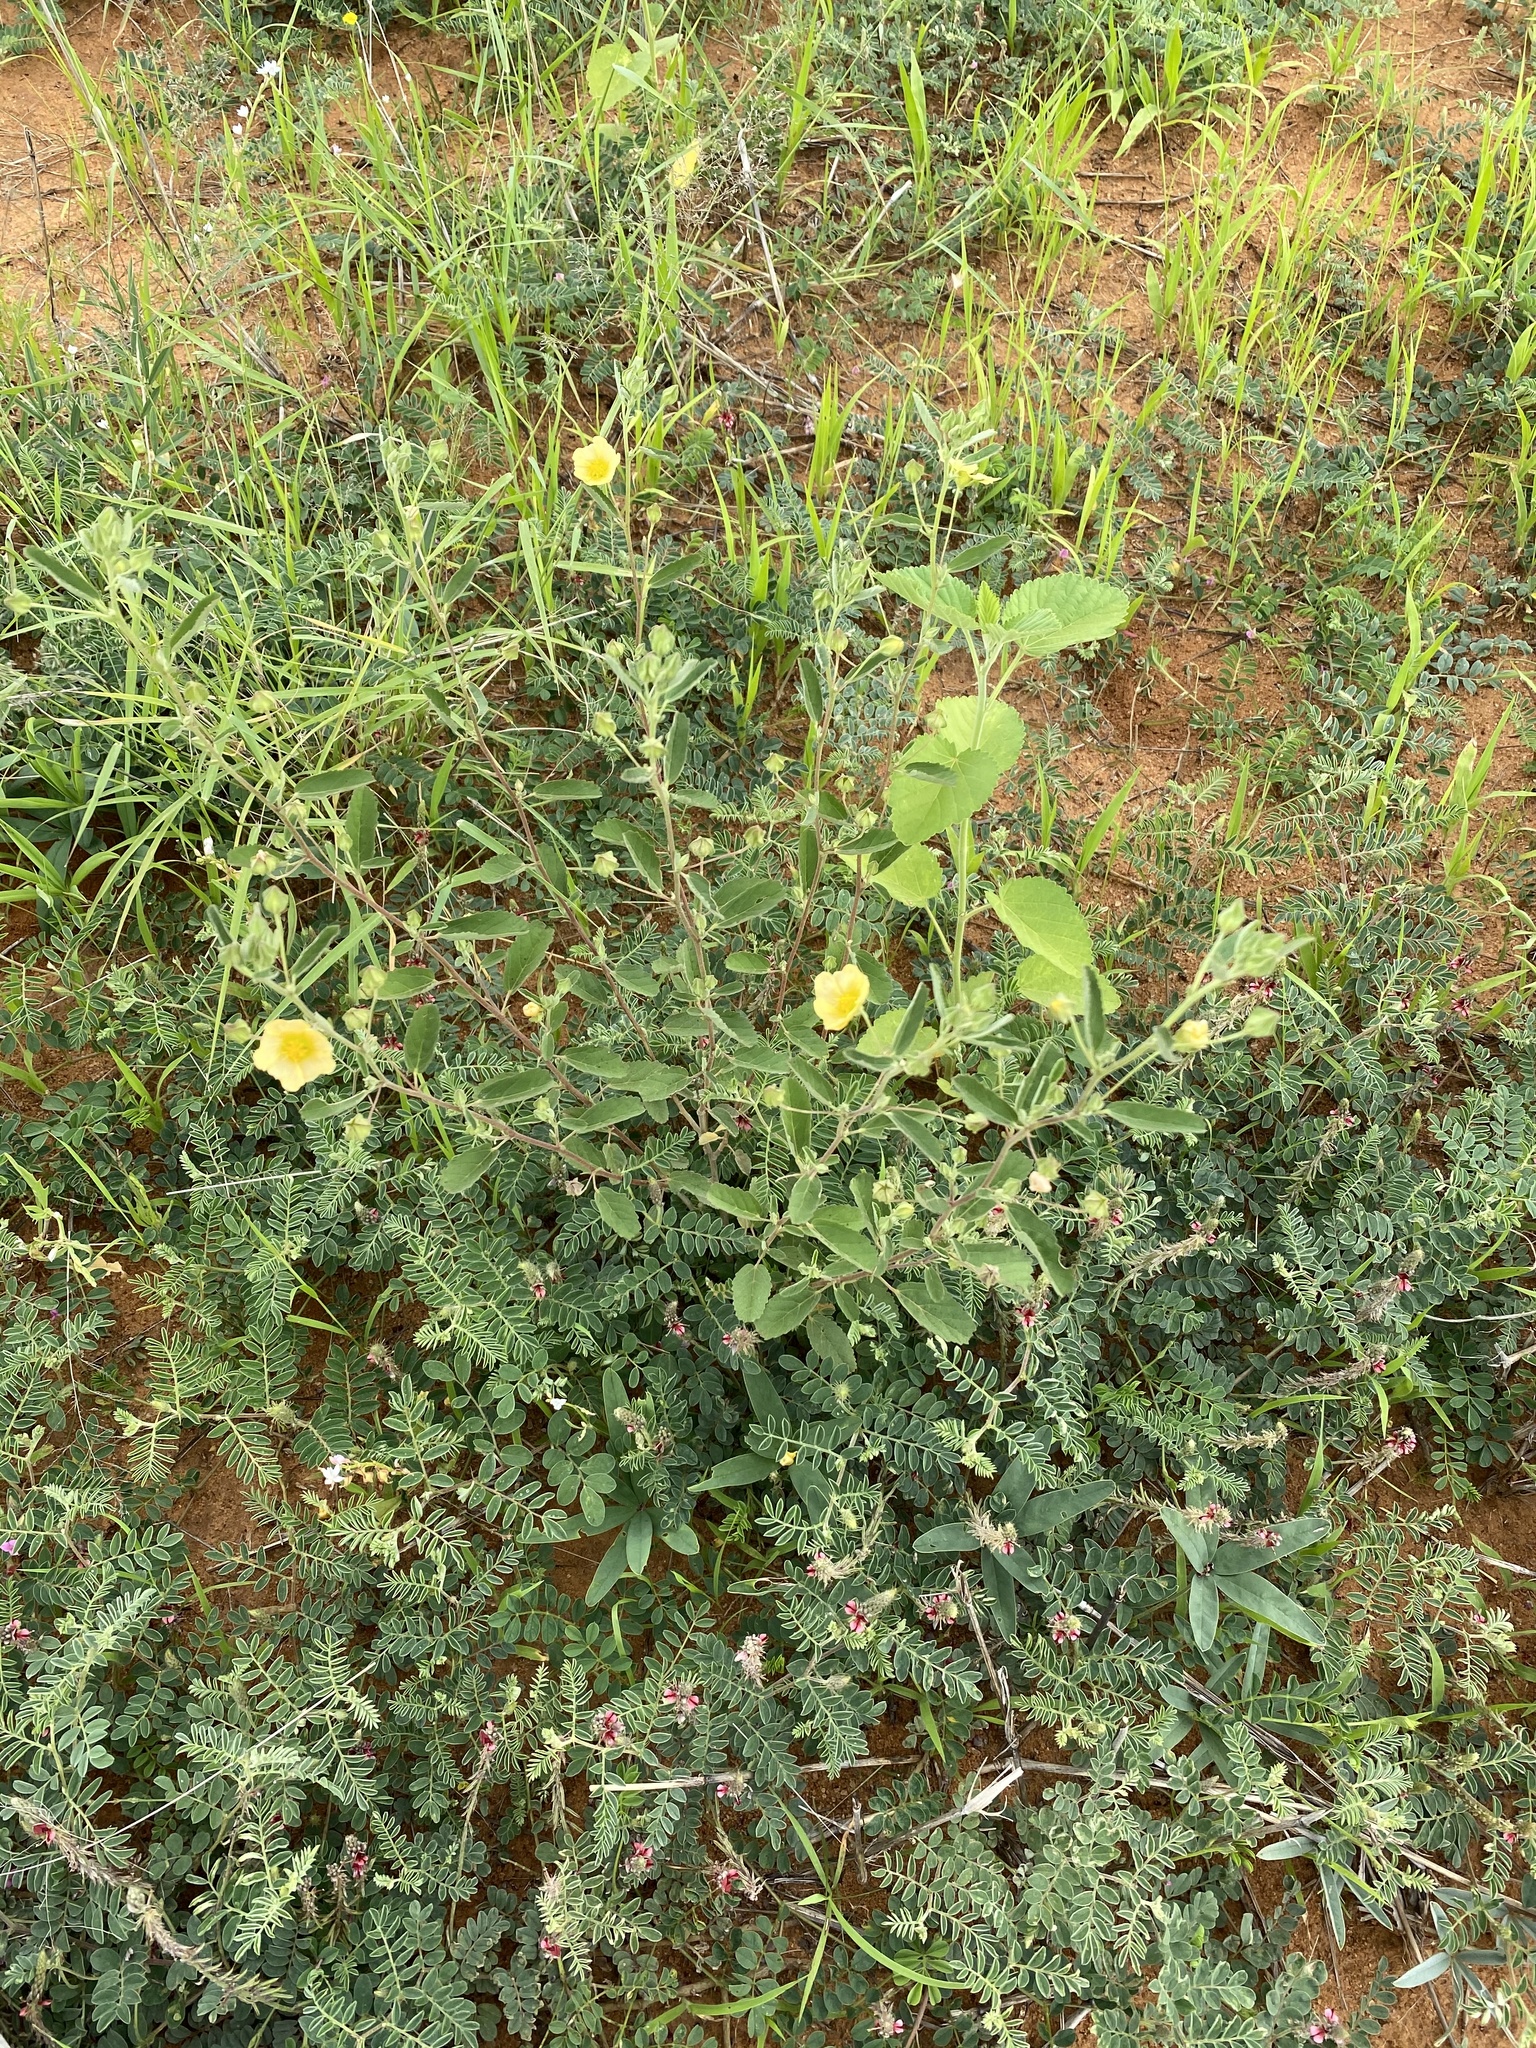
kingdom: Plantae
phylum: Tracheophyta
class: Magnoliopsida
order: Malvales
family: Malvaceae
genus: Sida
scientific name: Sida ovata
